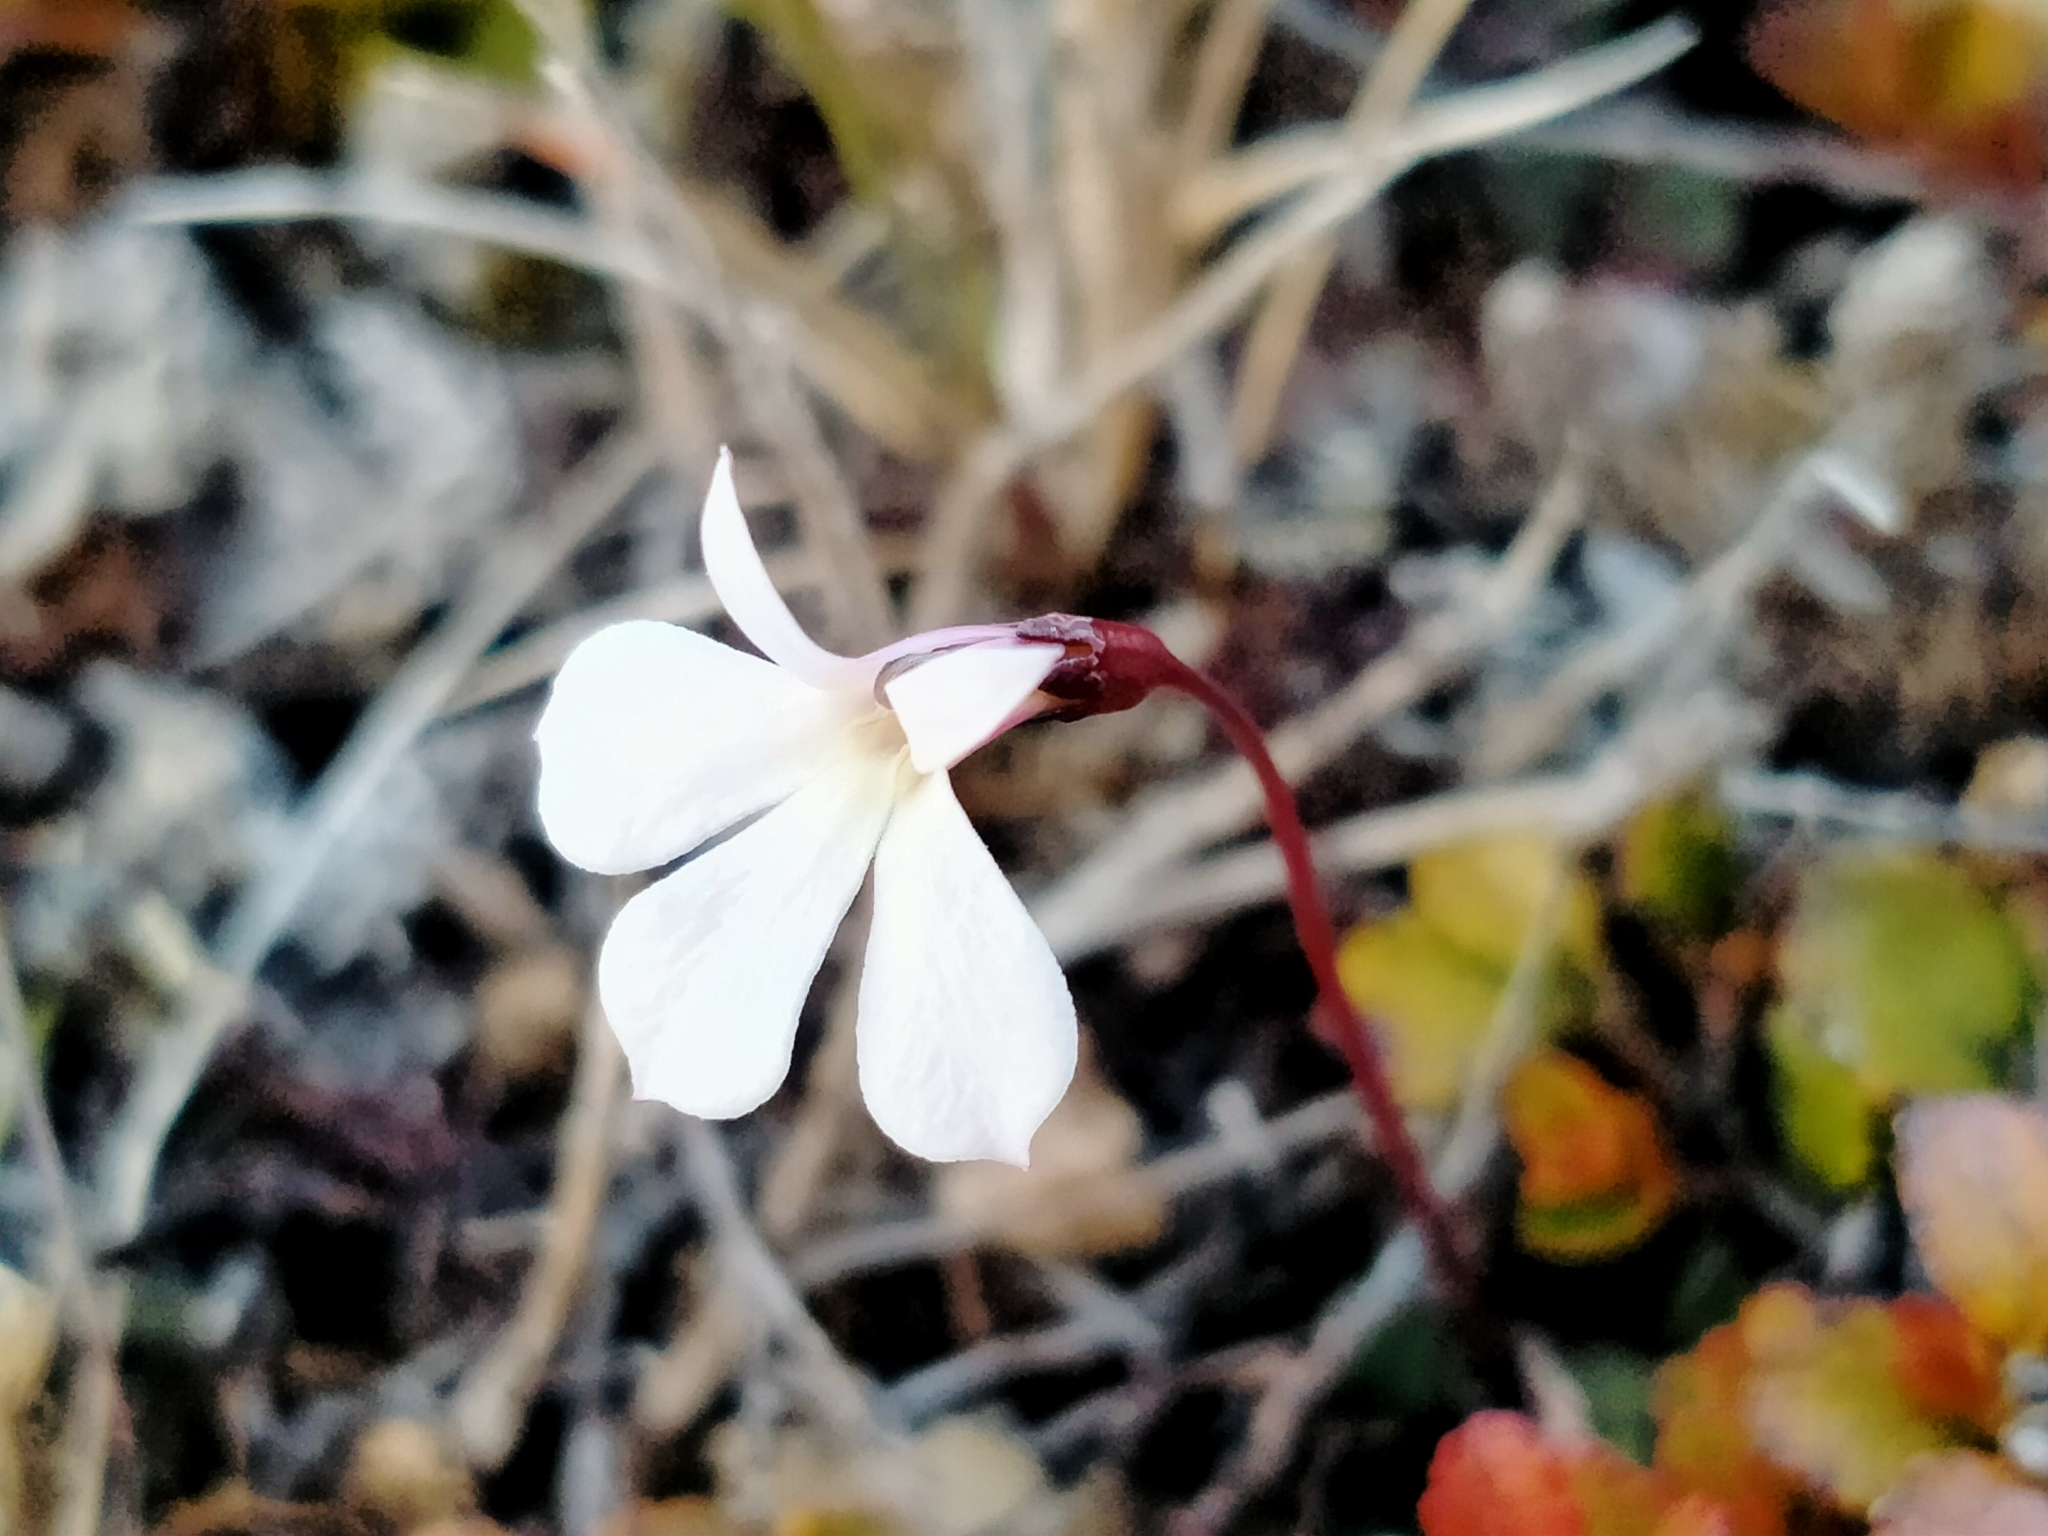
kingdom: Plantae
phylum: Tracheophyta
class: Magnoliopsida
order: Asterales
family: Campanulaceae
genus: Lobelia
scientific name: Lobelia angulata
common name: Lawn lobelia
